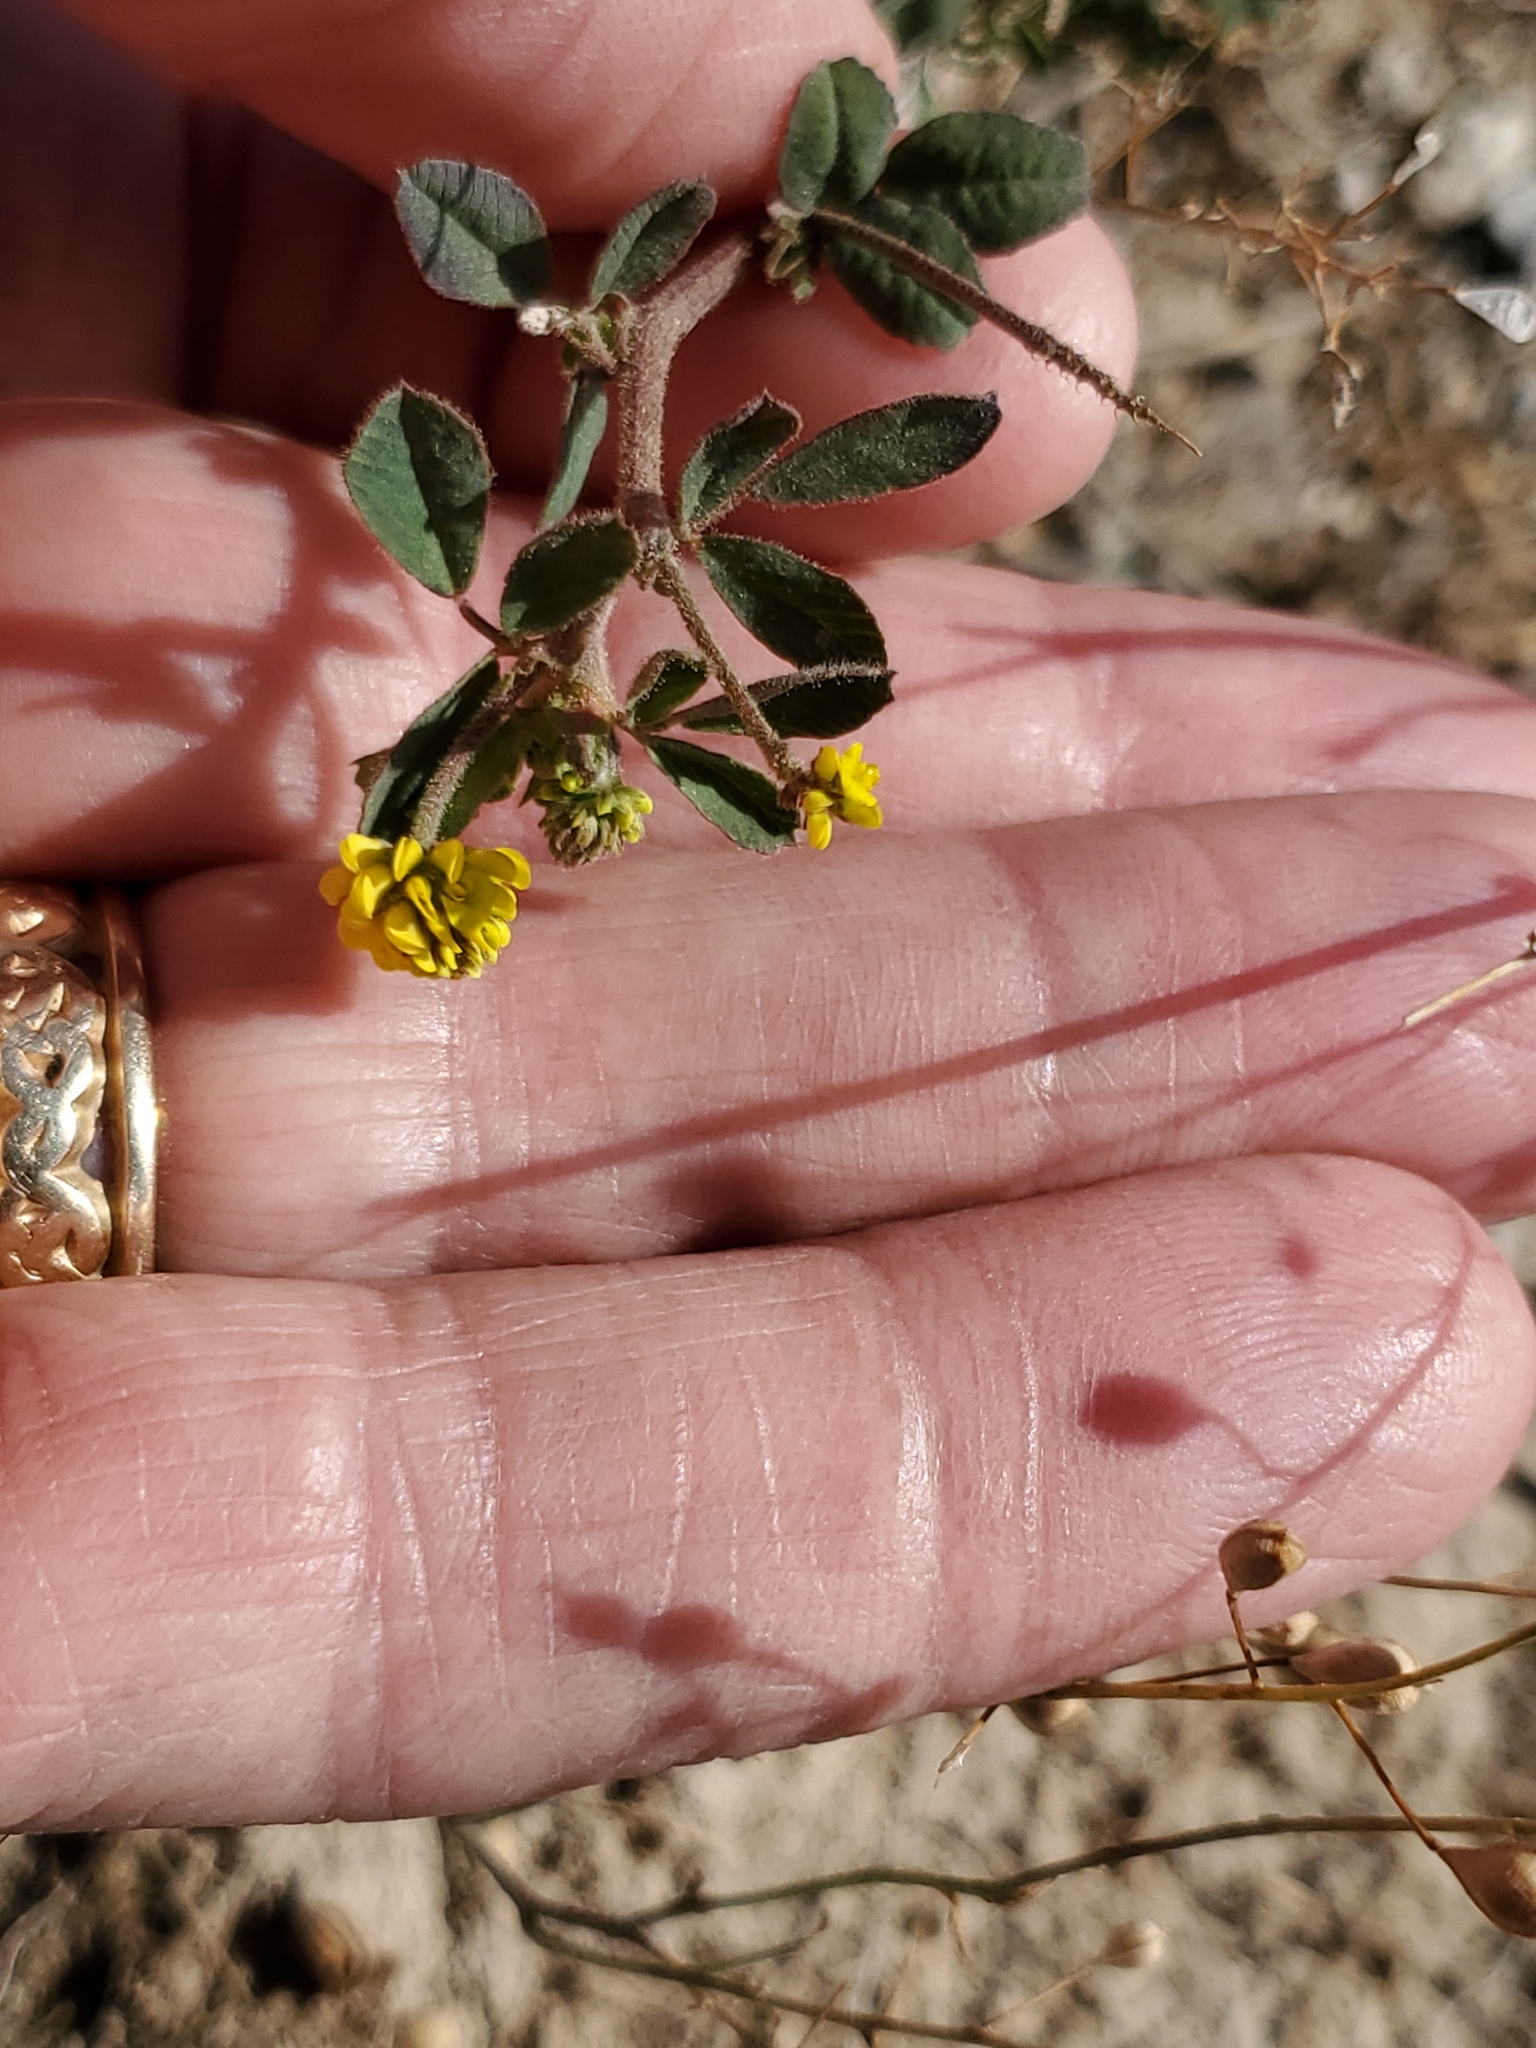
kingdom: Plantae
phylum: Tracheophyta
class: Magnoliopsida
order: Fabales
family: Fabaceae
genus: Medicago
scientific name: Medicago lupulina
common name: Black medick
